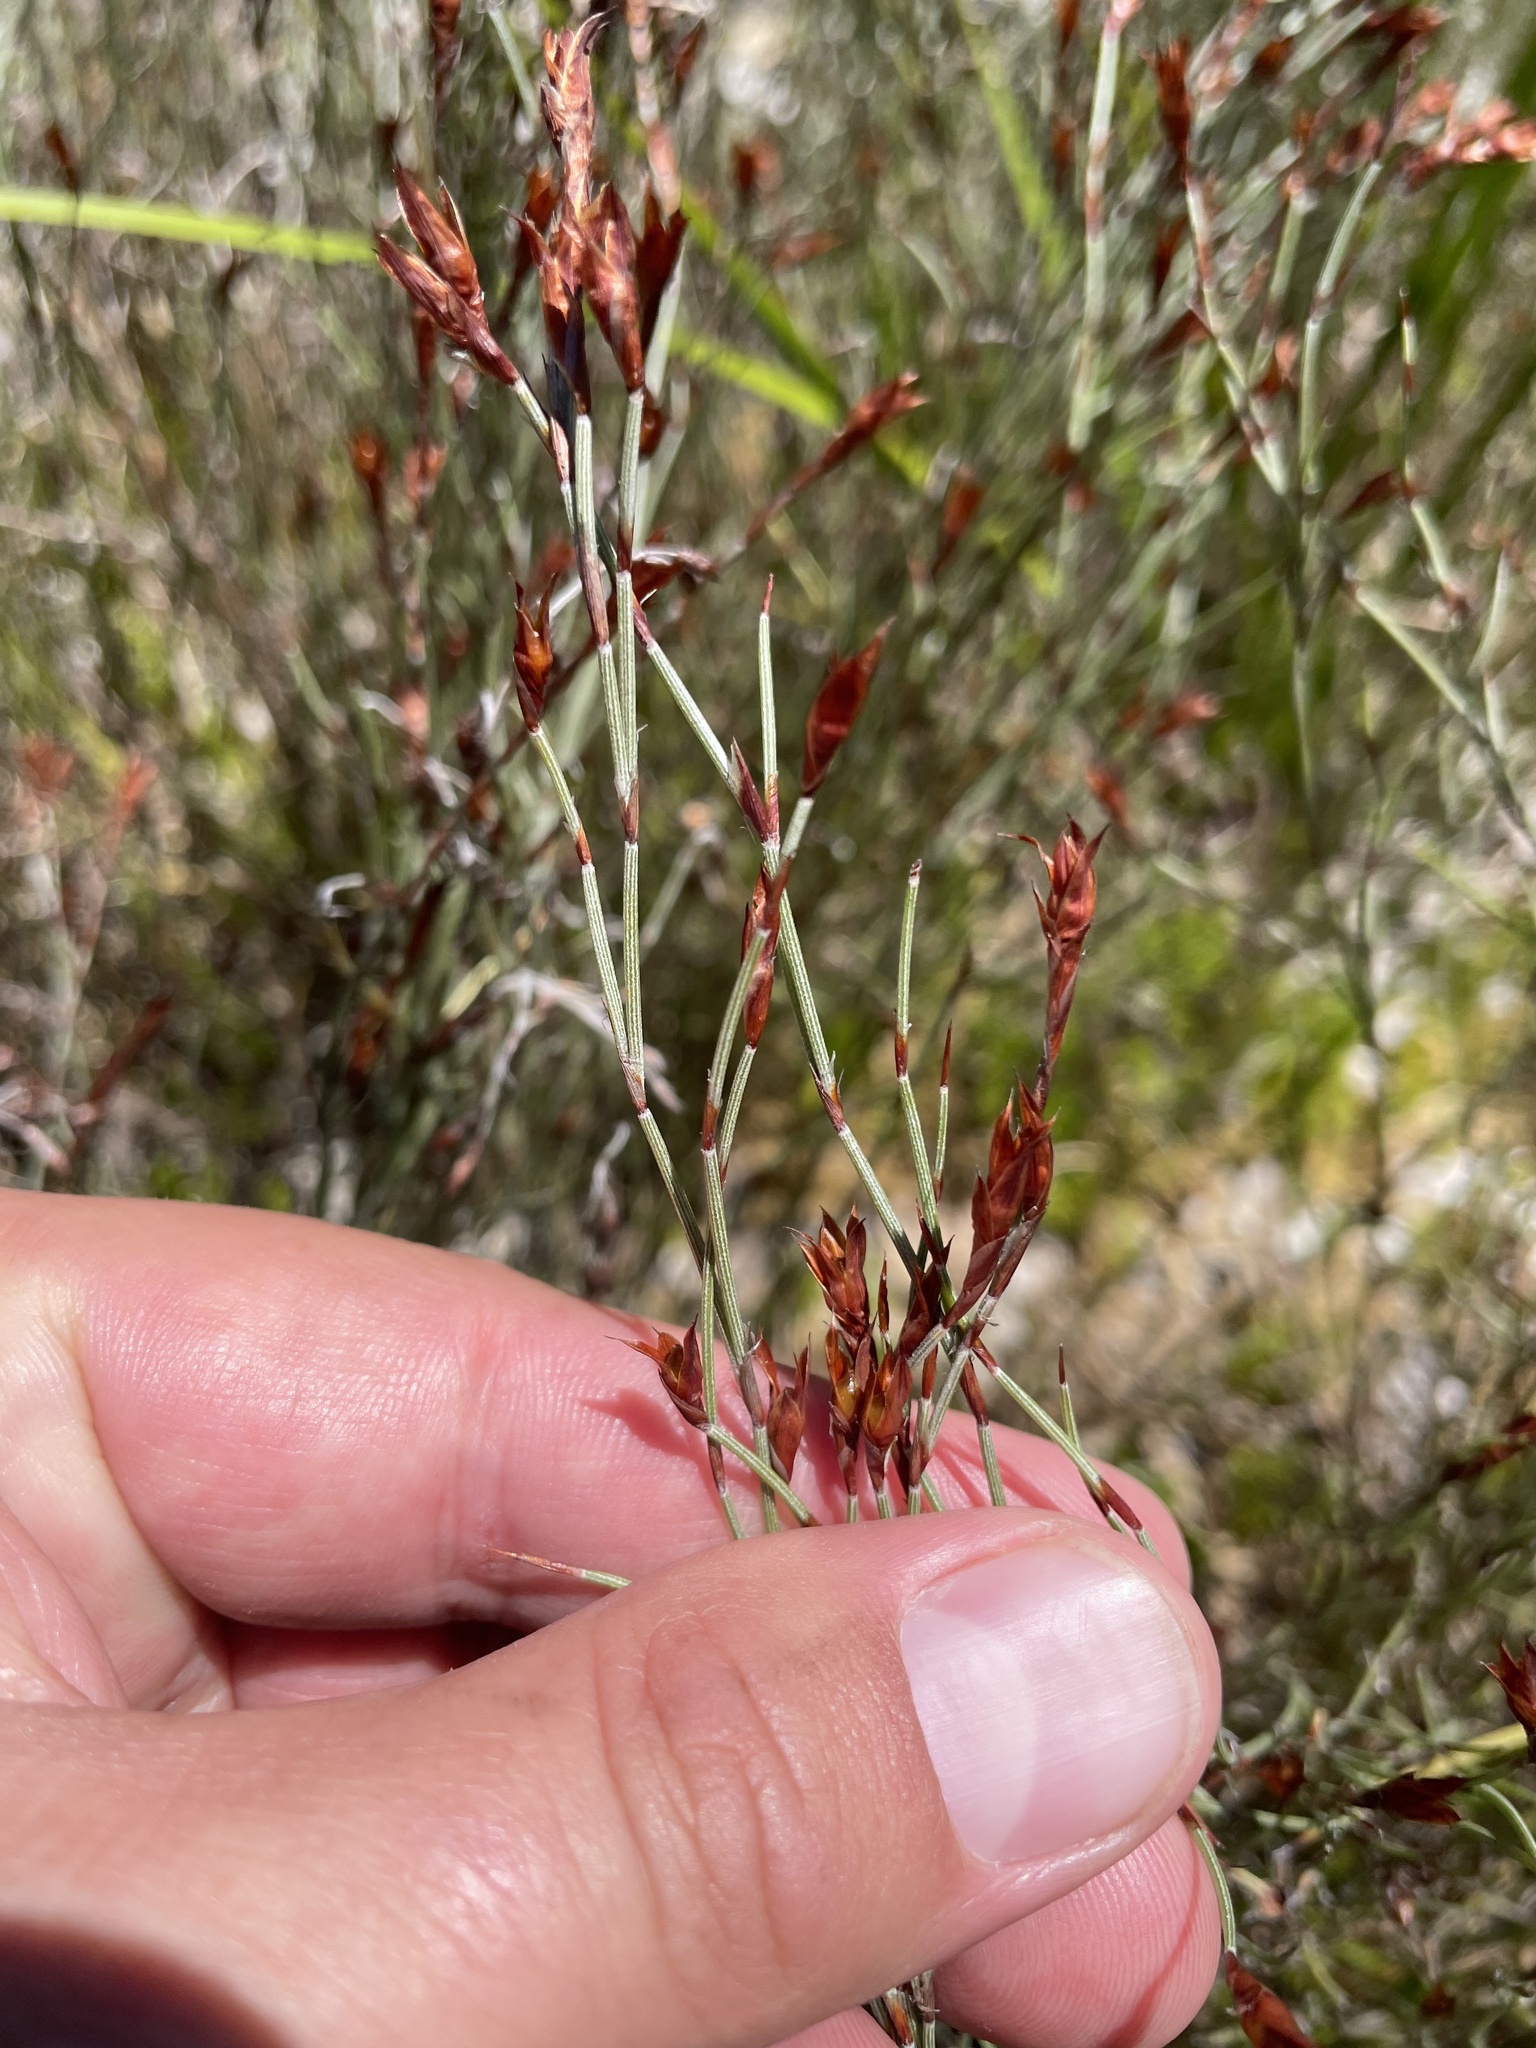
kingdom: Plantae
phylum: Tracheophyta
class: Liliopsida
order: Poales
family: Restionaceae
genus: Hypolaena
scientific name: Hypolaena fastigiata
